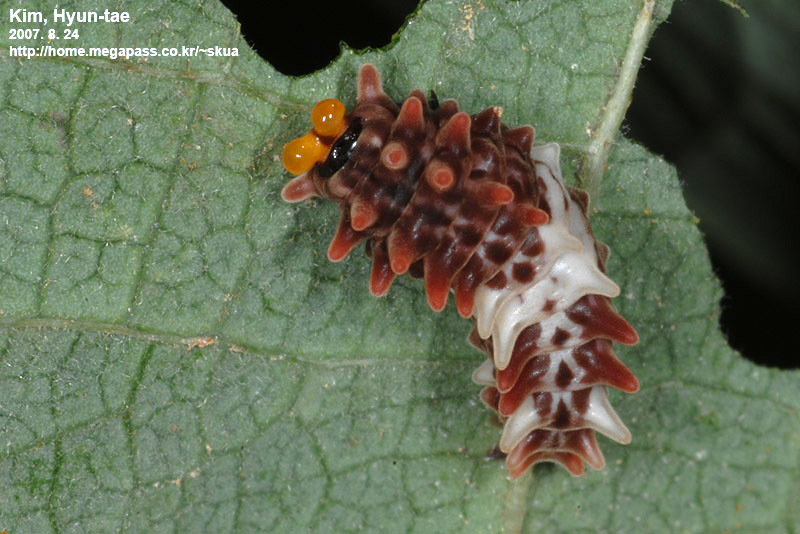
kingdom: Animalia
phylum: Arthropoda
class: Insecta
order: Lepidoptera
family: Papilionidae
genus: Byasa
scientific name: Byasa alcinous
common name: Chinese windmill
